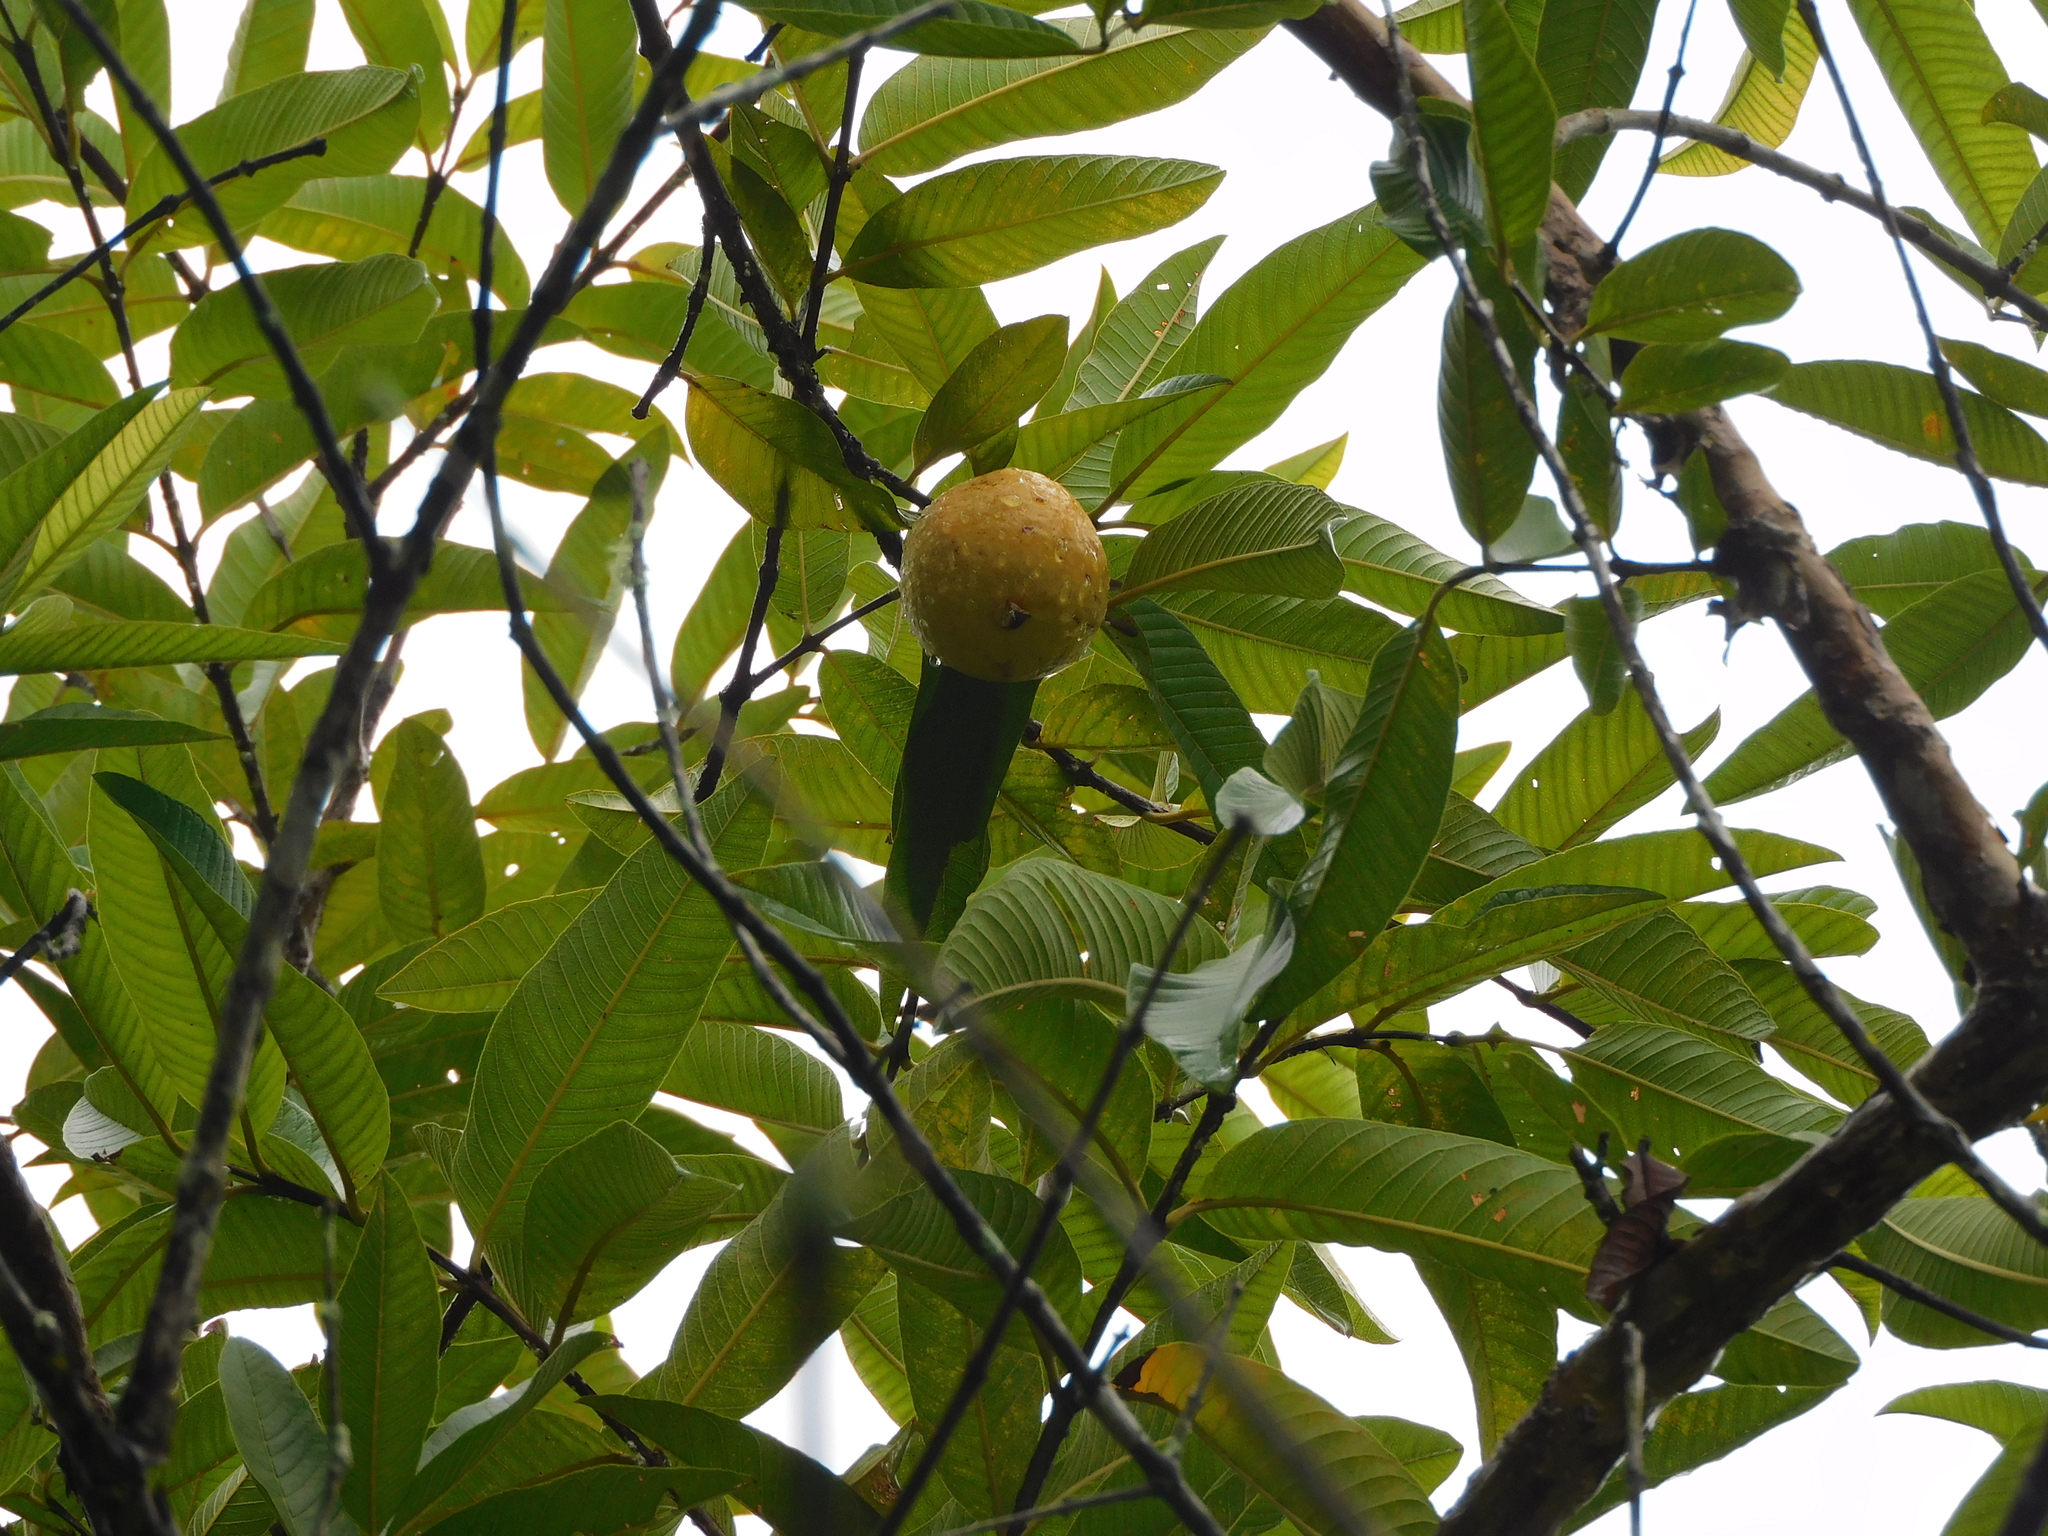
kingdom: Plantae
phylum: Tracheophyta
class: Magnoliopsida
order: Myrtales
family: Myrtaceae
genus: Psidium
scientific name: Psidium guajava
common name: Guava
